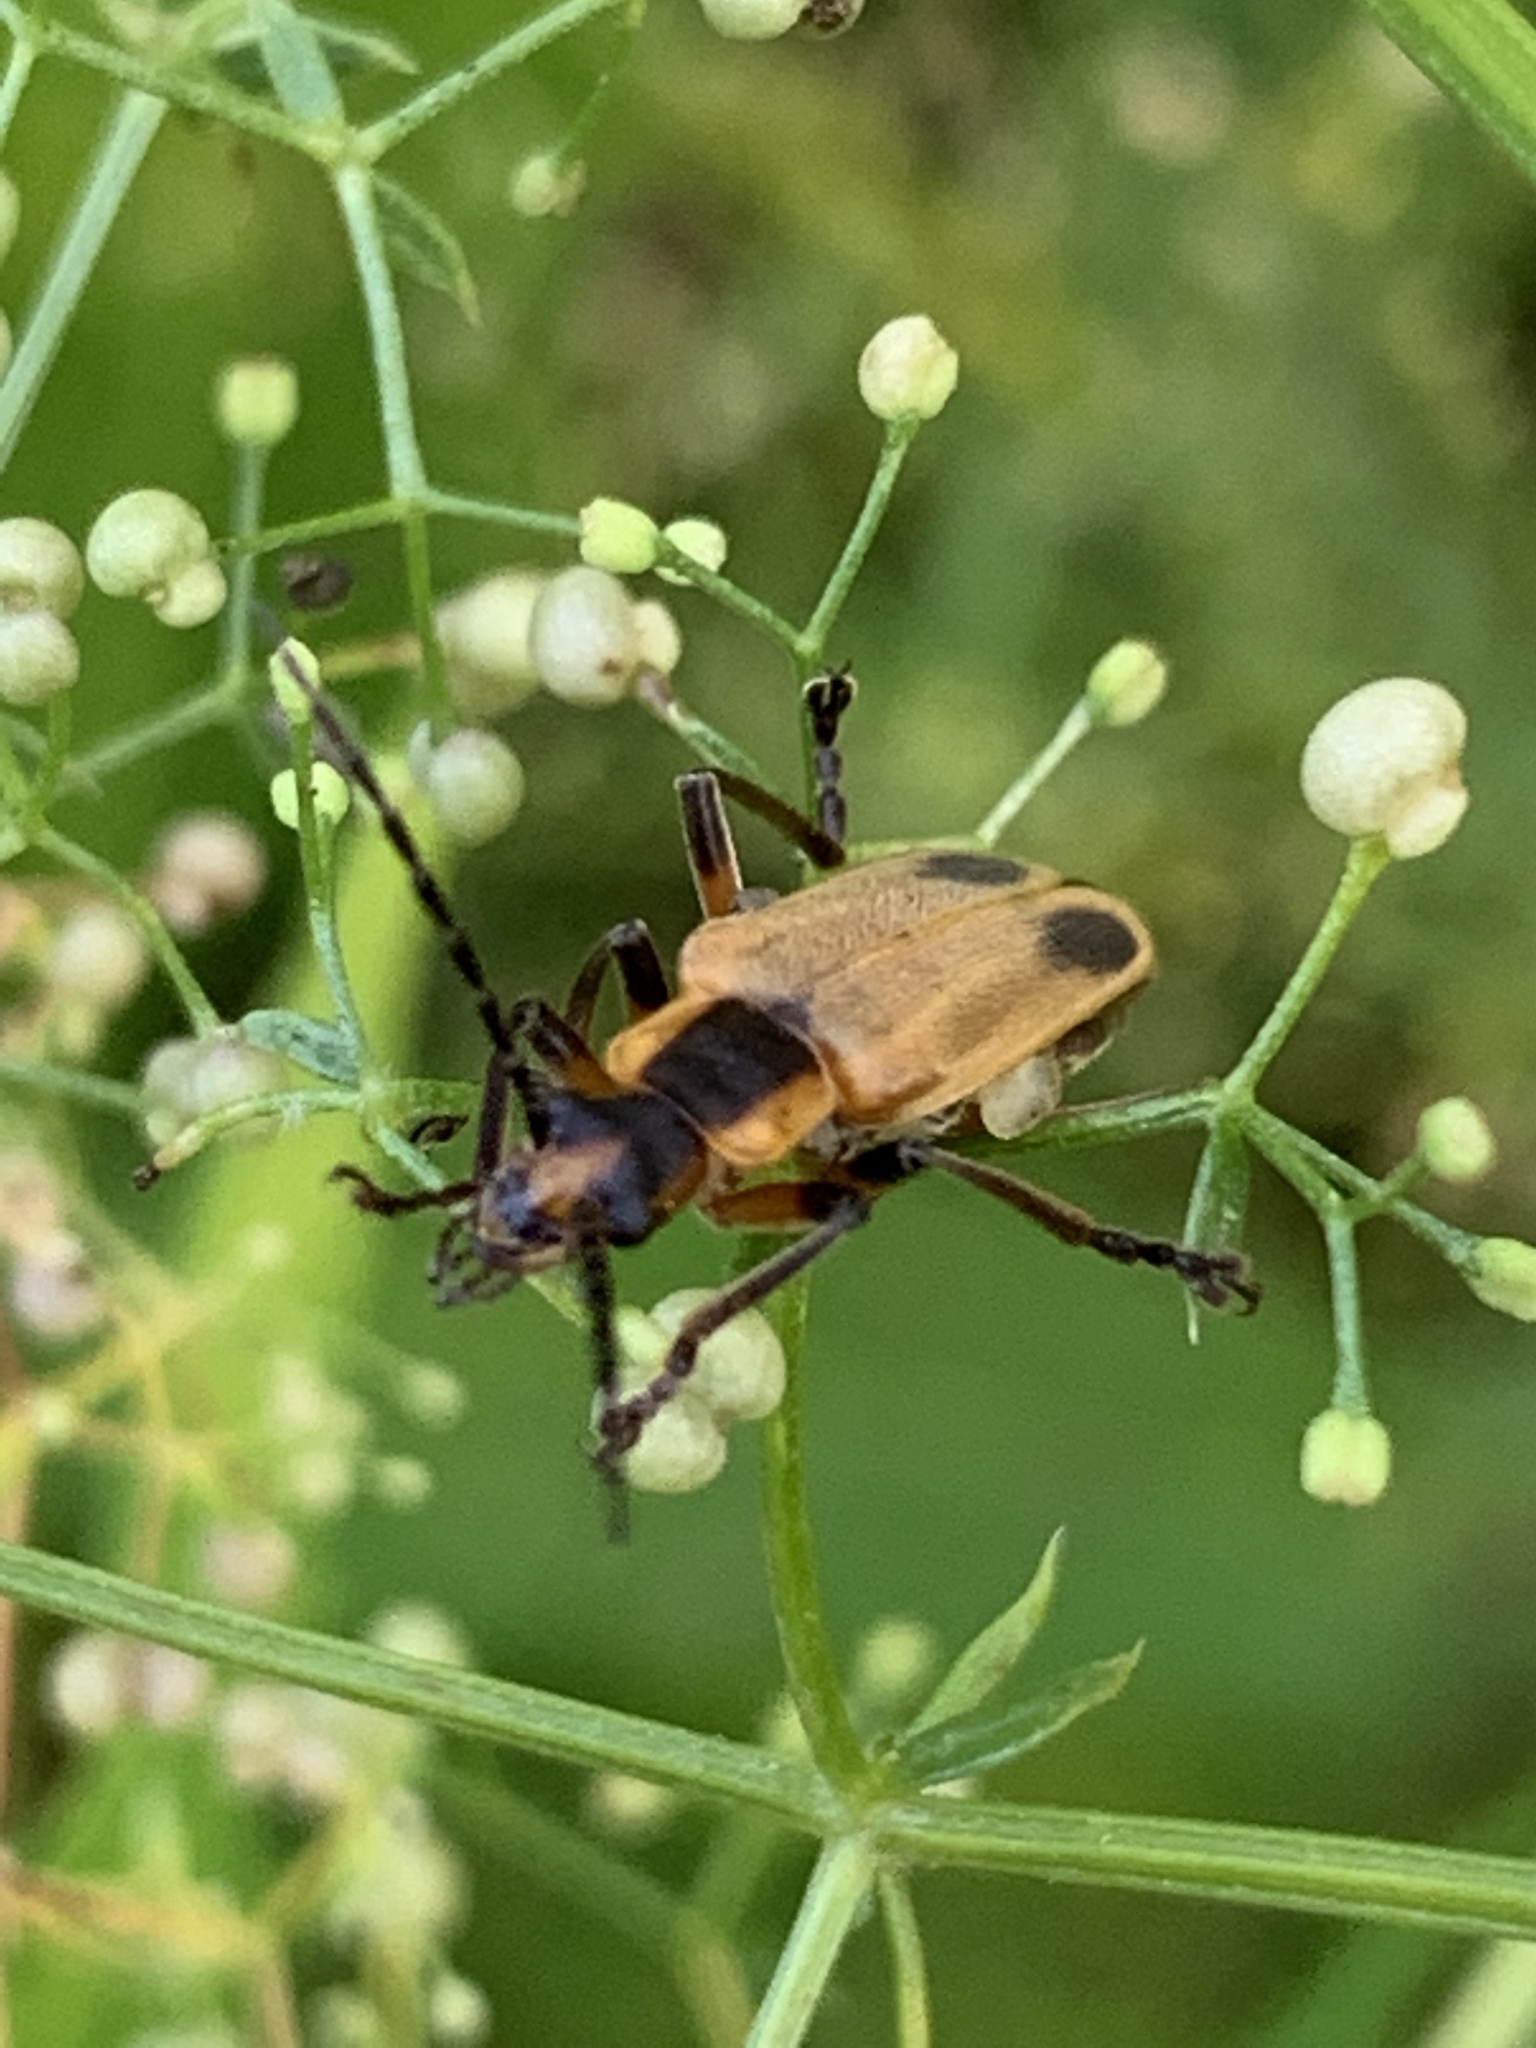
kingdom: Animalia
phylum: Arthropoda
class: Insecta
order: Coleoptera
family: Cantharidae
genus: Chauliognathus
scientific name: Chauliognathus marginatus
